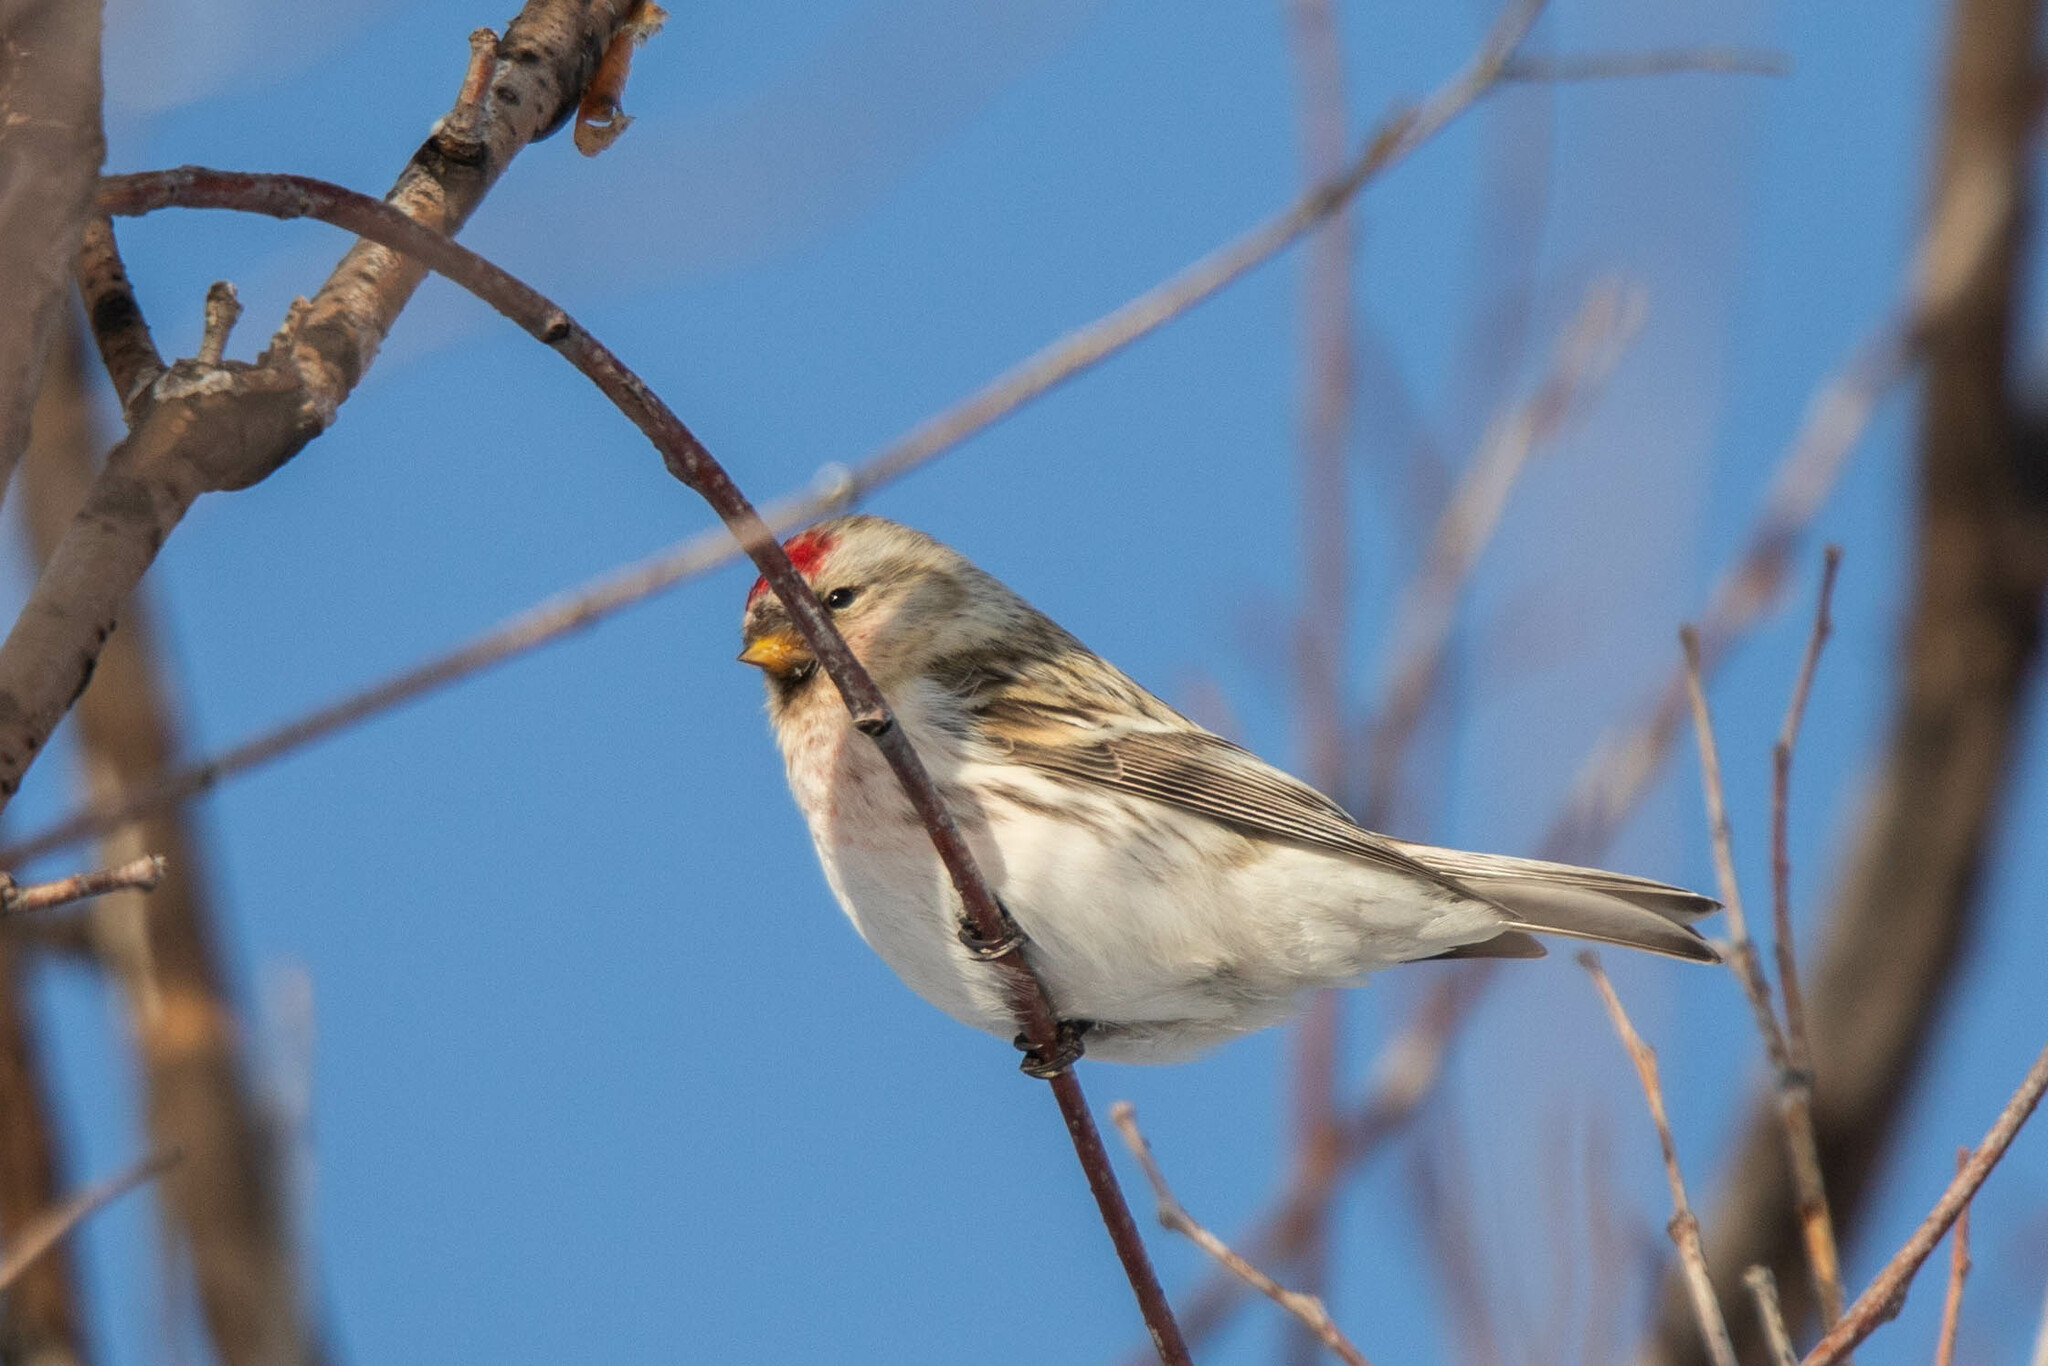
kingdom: Animalia
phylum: Chordata
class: Aves
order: Passeriformes
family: Fringillidae
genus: Acanthis
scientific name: Acanthis hornemanni
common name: Arctic redpoll
